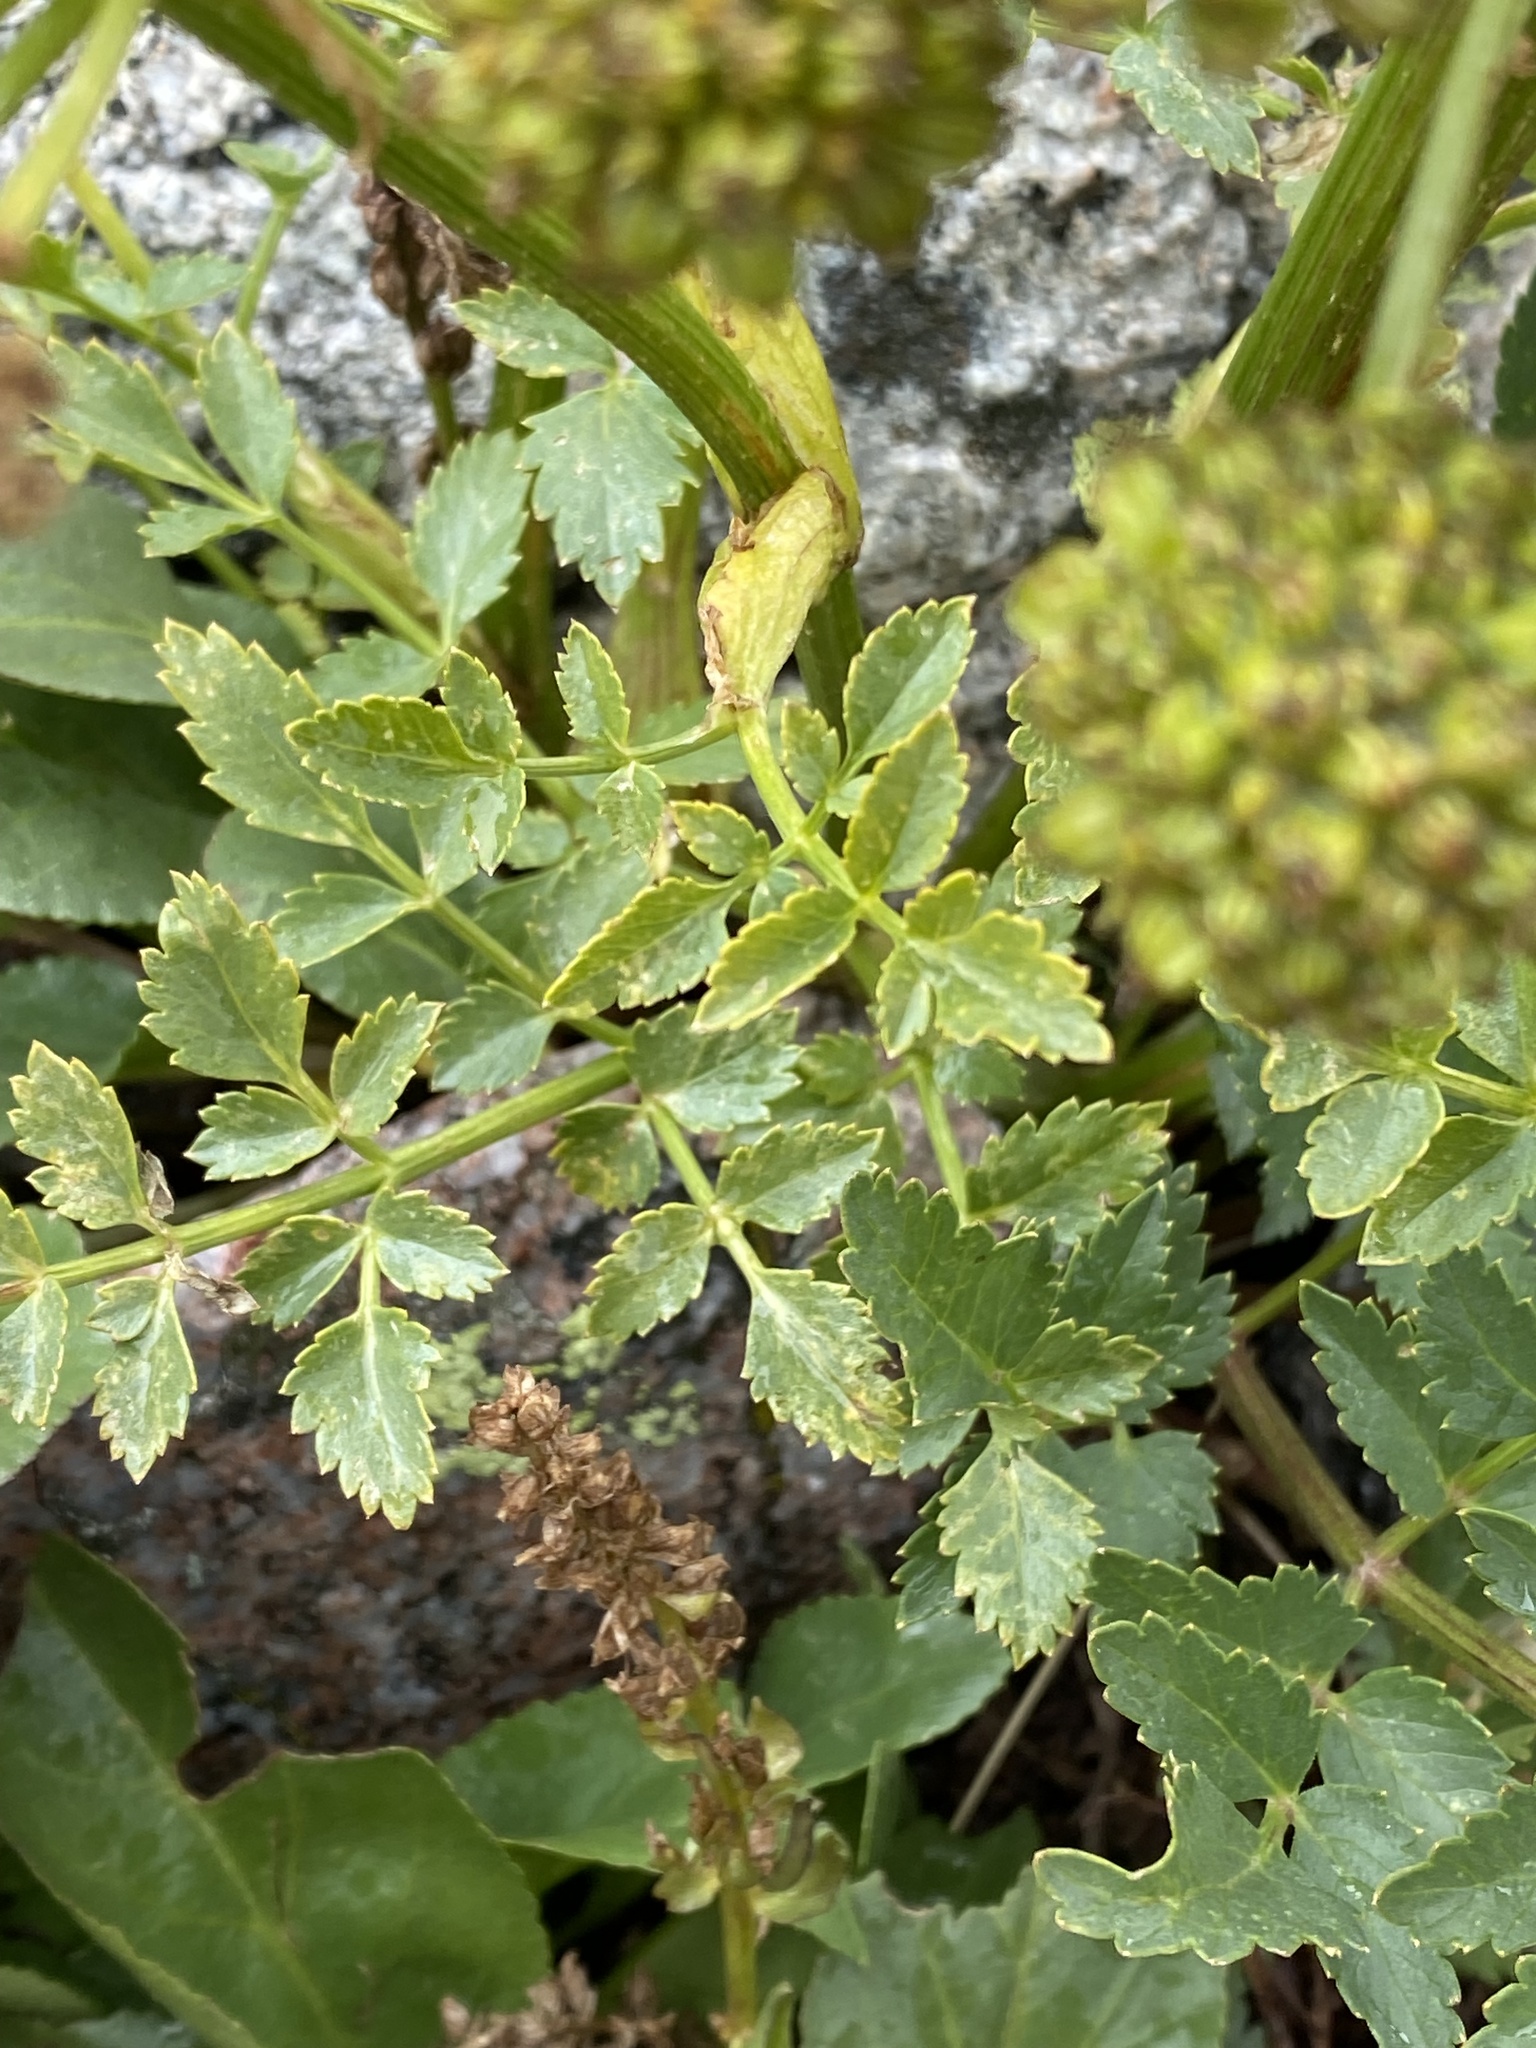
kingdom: Plantae
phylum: Tracheophyta
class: Magnoliopsida
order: Apiales
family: Apiaceae
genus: Angelica
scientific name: Angelica grayi
